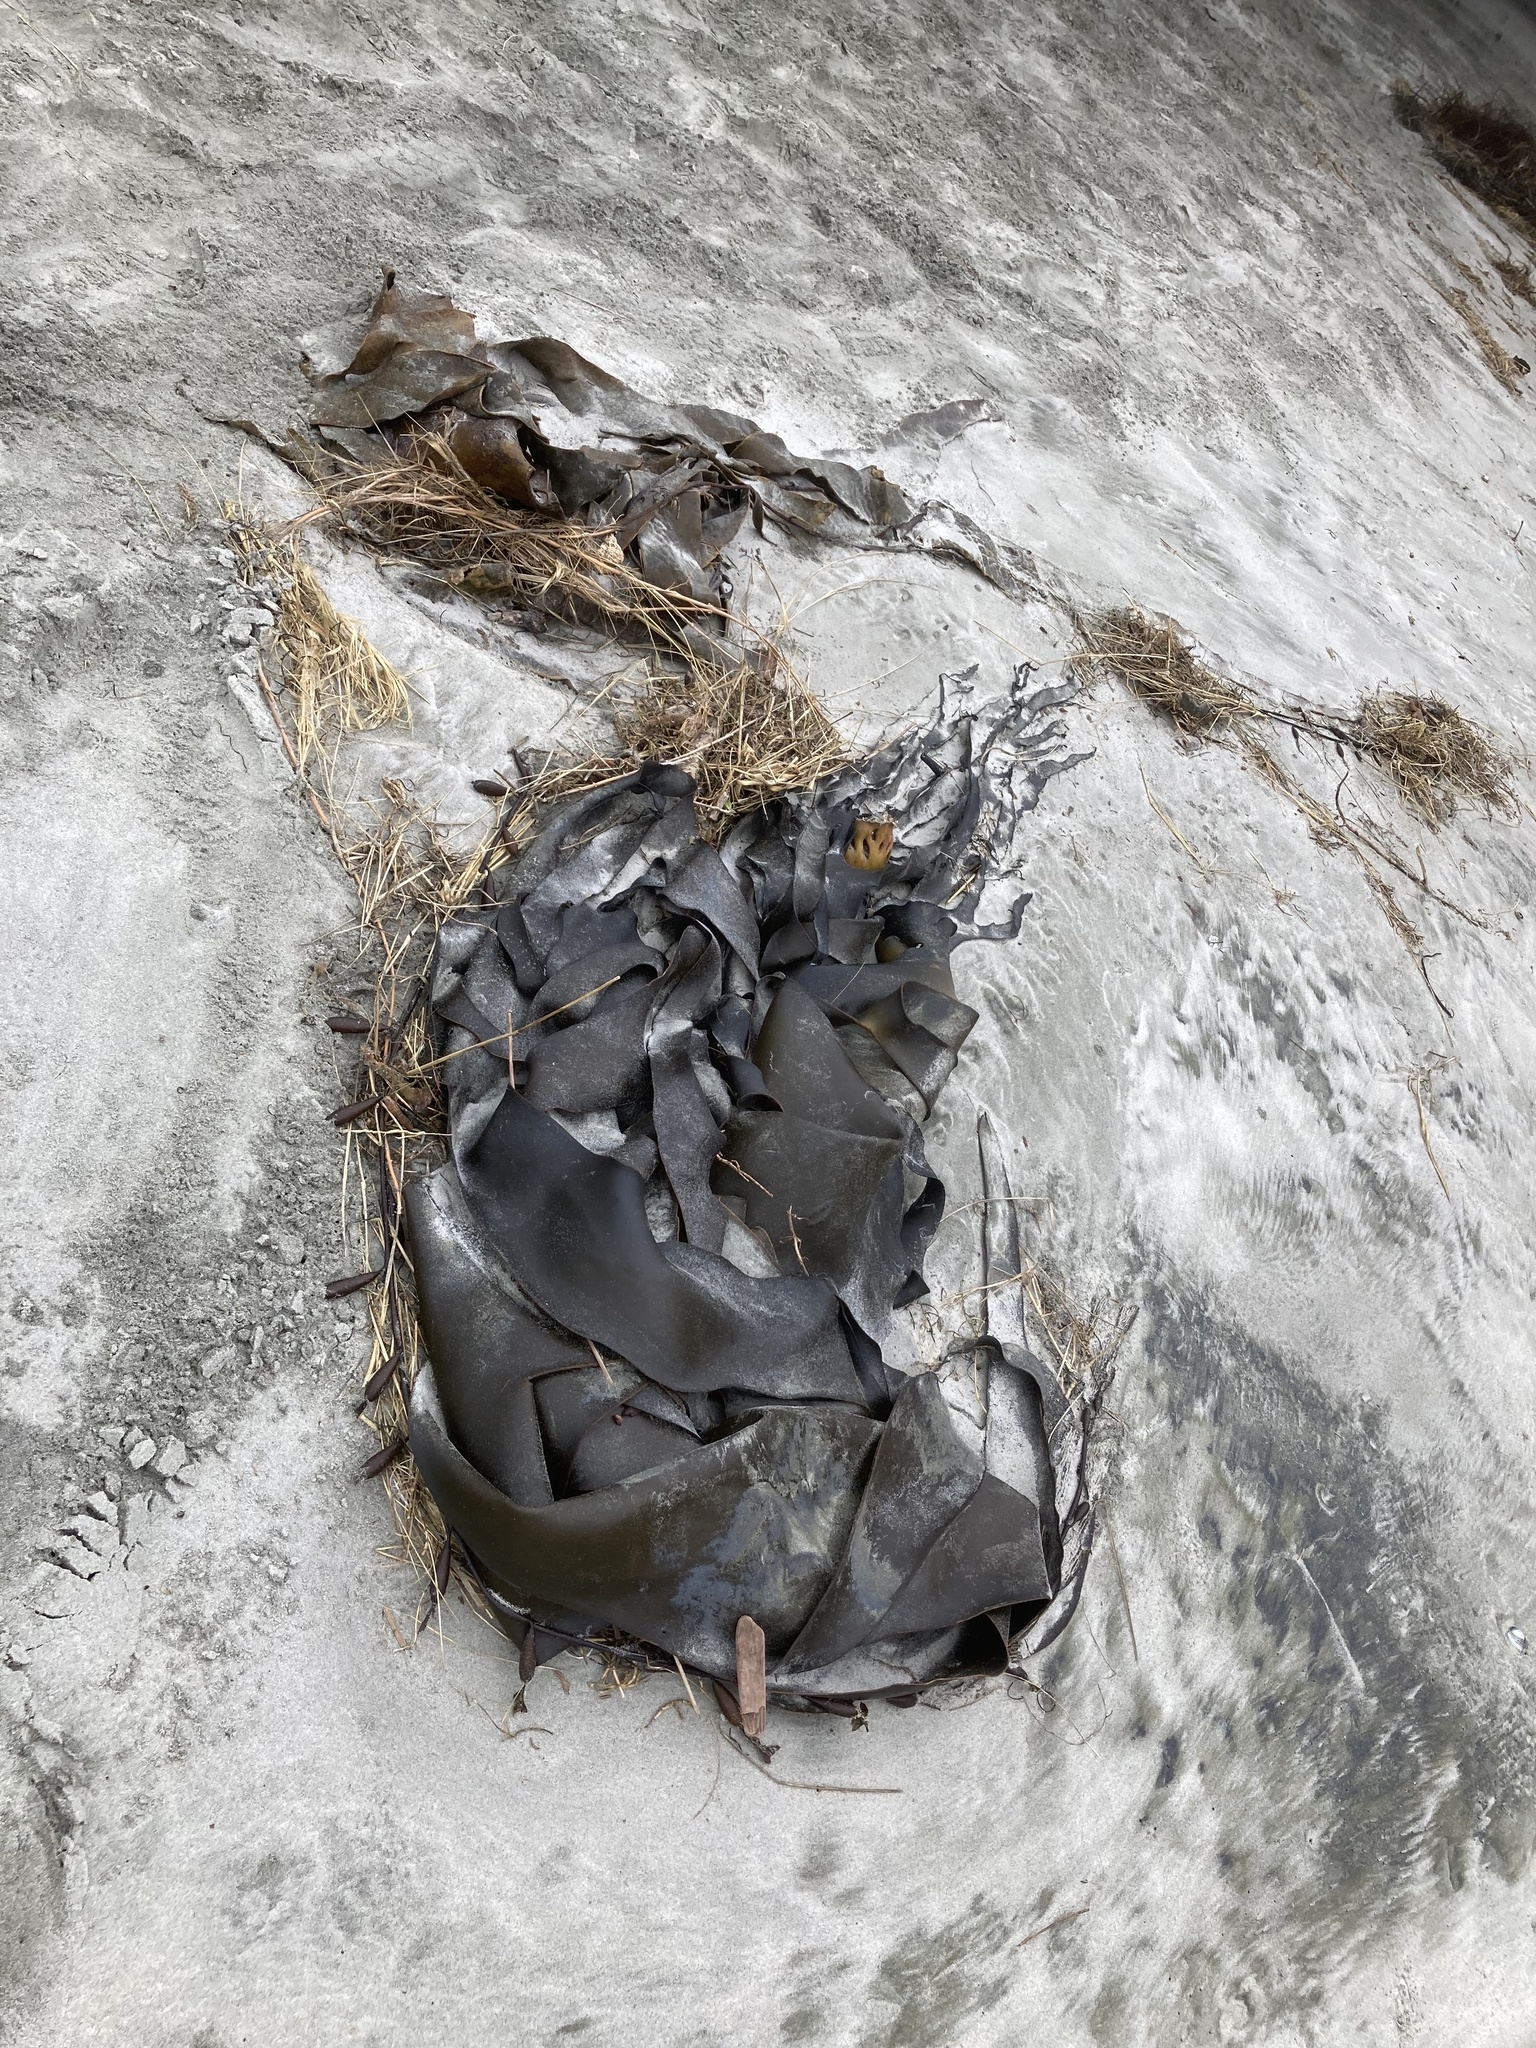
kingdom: Chromista
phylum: Ochrophyta
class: Phaeophyceae
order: Fucales
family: Durvillaeaceae
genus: Durvillaea
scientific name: Durvillaea antarctica
